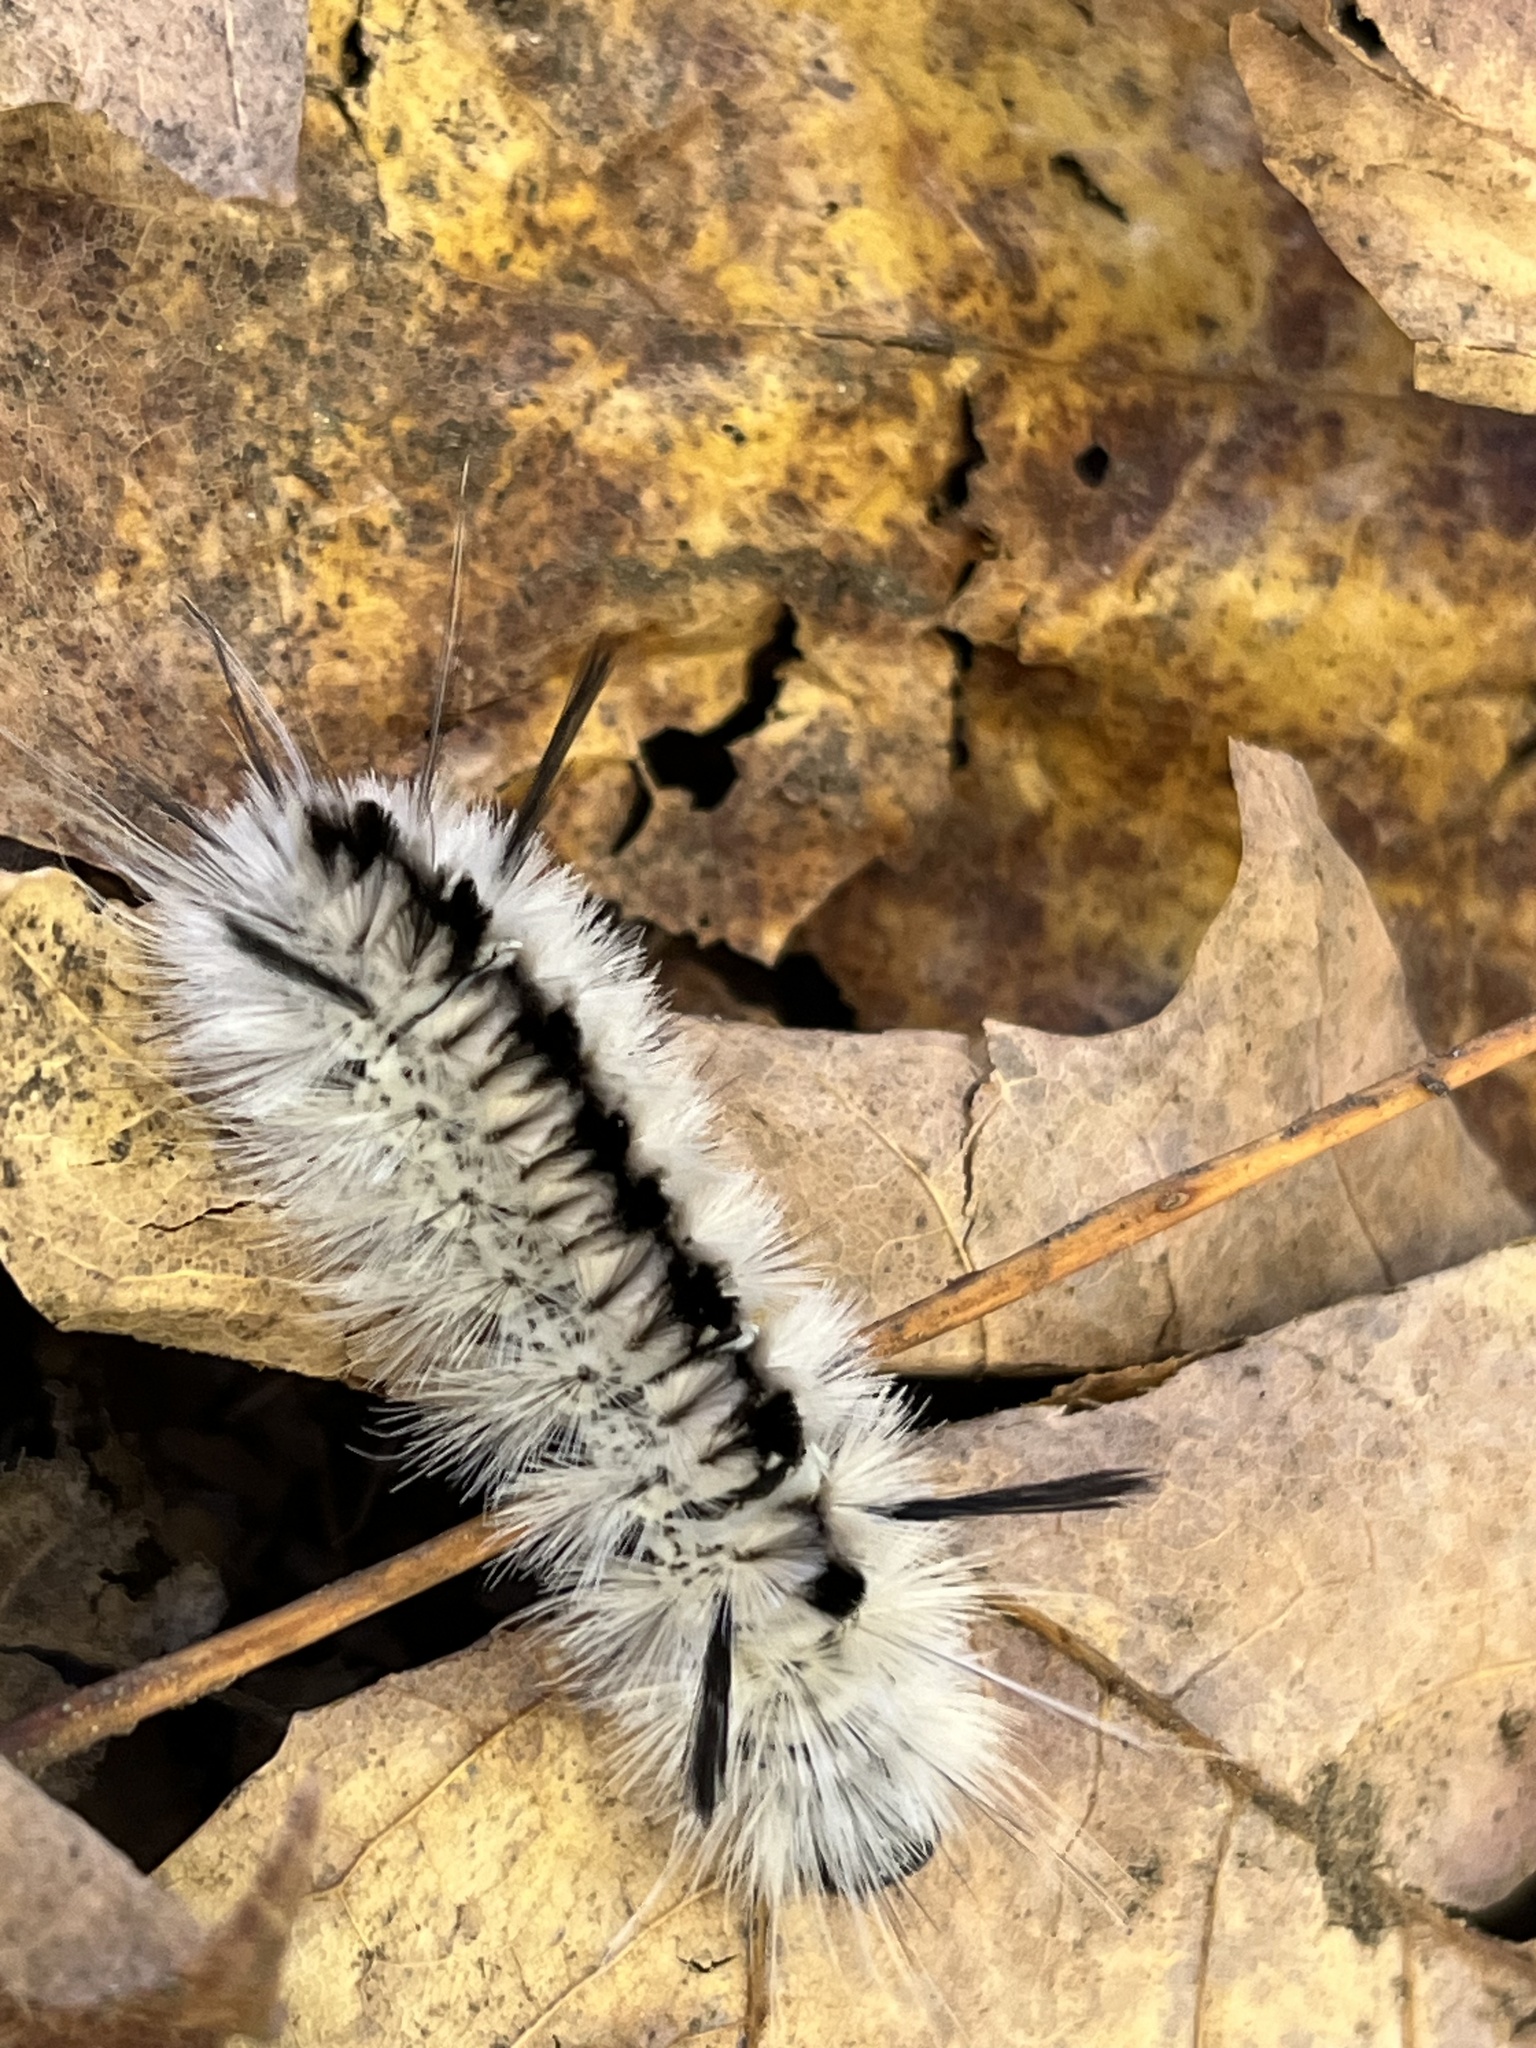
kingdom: Animalia
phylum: Arthropoda
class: Insecta
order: Lepidoptera
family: Erebidae
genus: Lophocampa
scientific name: Lophocampa caryae
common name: Hickory tussock moth
